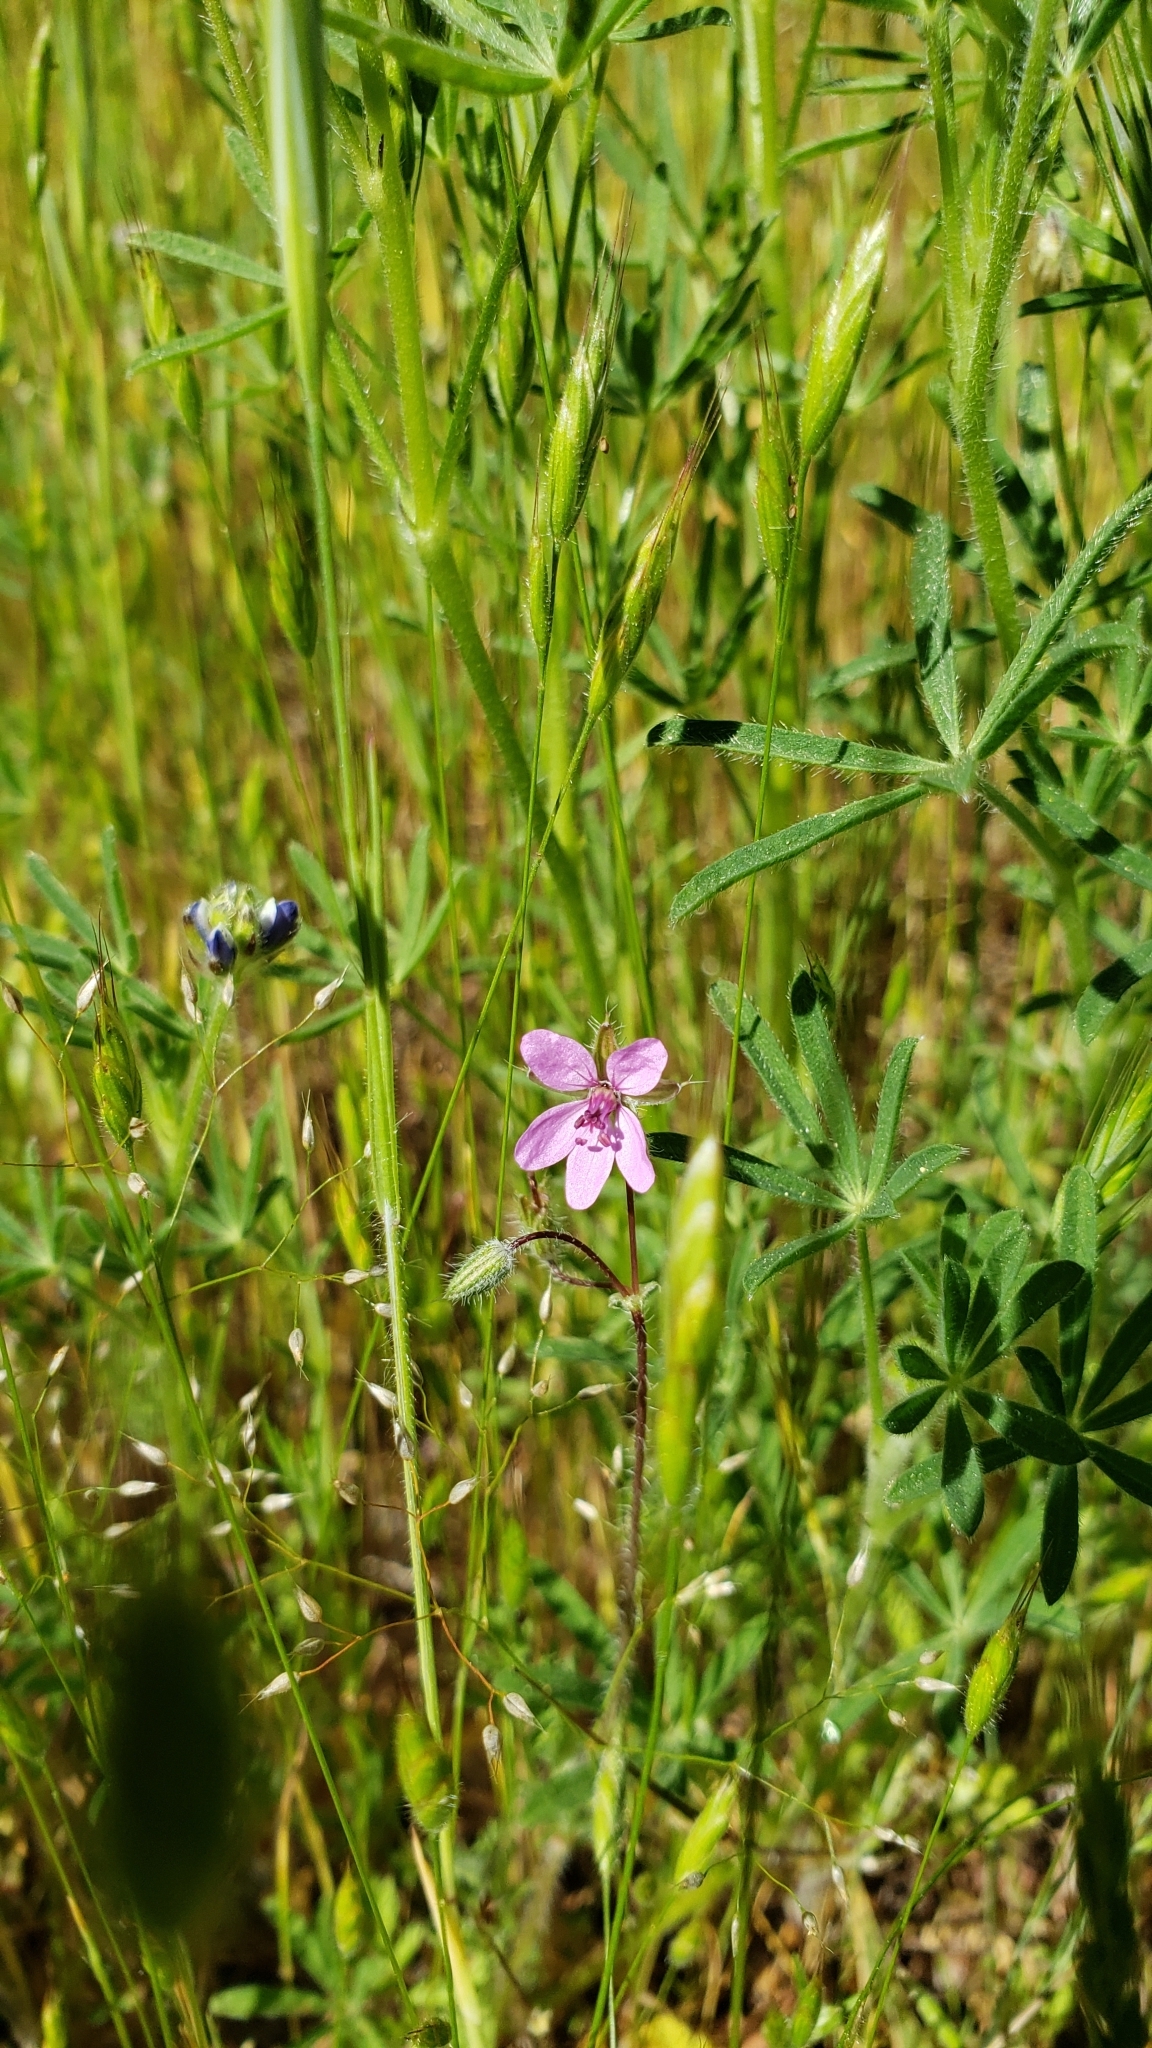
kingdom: Plantae
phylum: Tracheophyta
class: Magnoliopsida
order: Geraniales
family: Geraniaceae
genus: Erodium
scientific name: Erodium cicutarium
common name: Common stork's-bill
